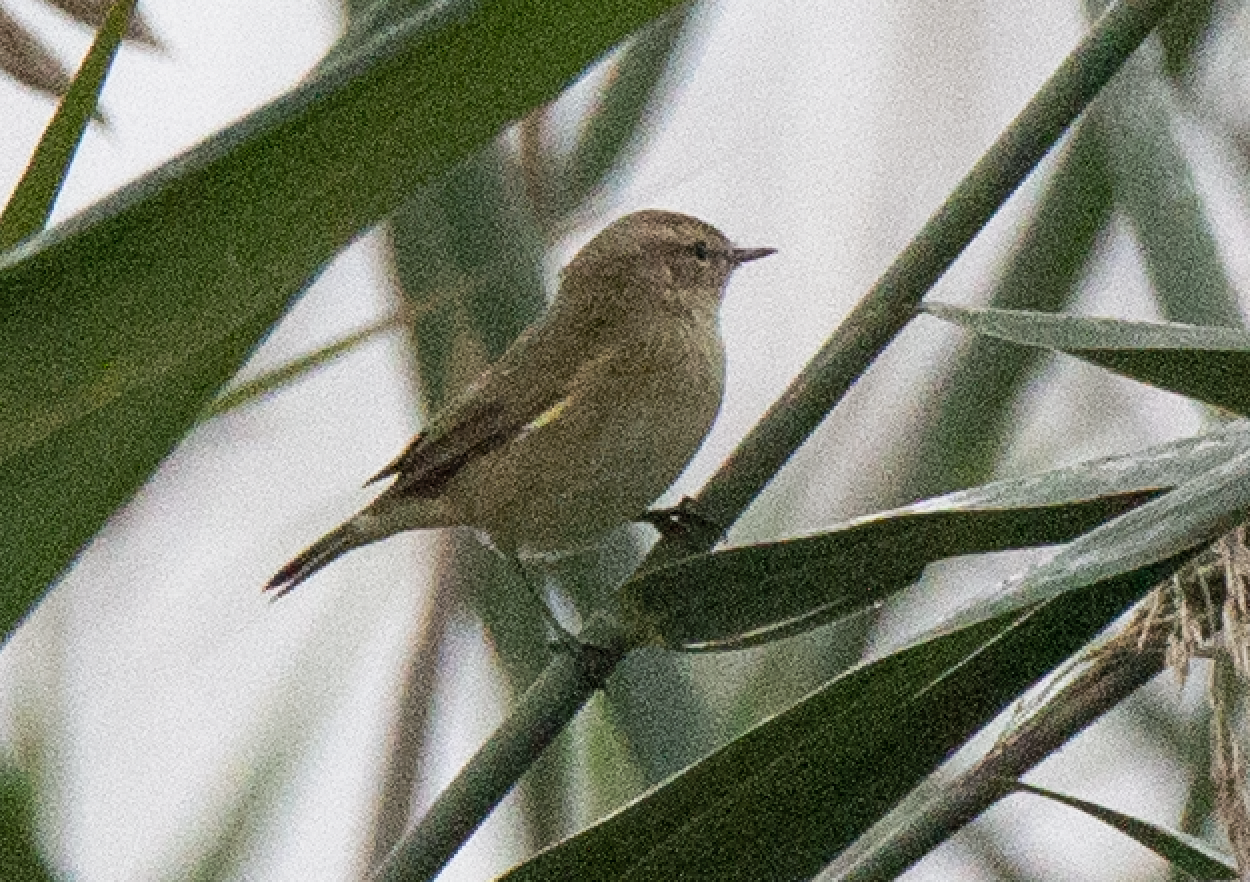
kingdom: Animalia
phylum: Chordata
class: Aves
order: Passeriformes
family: Phylloscopidae
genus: Phylloscopus
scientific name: Phylloscopus collybita
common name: Common chiffchaff
